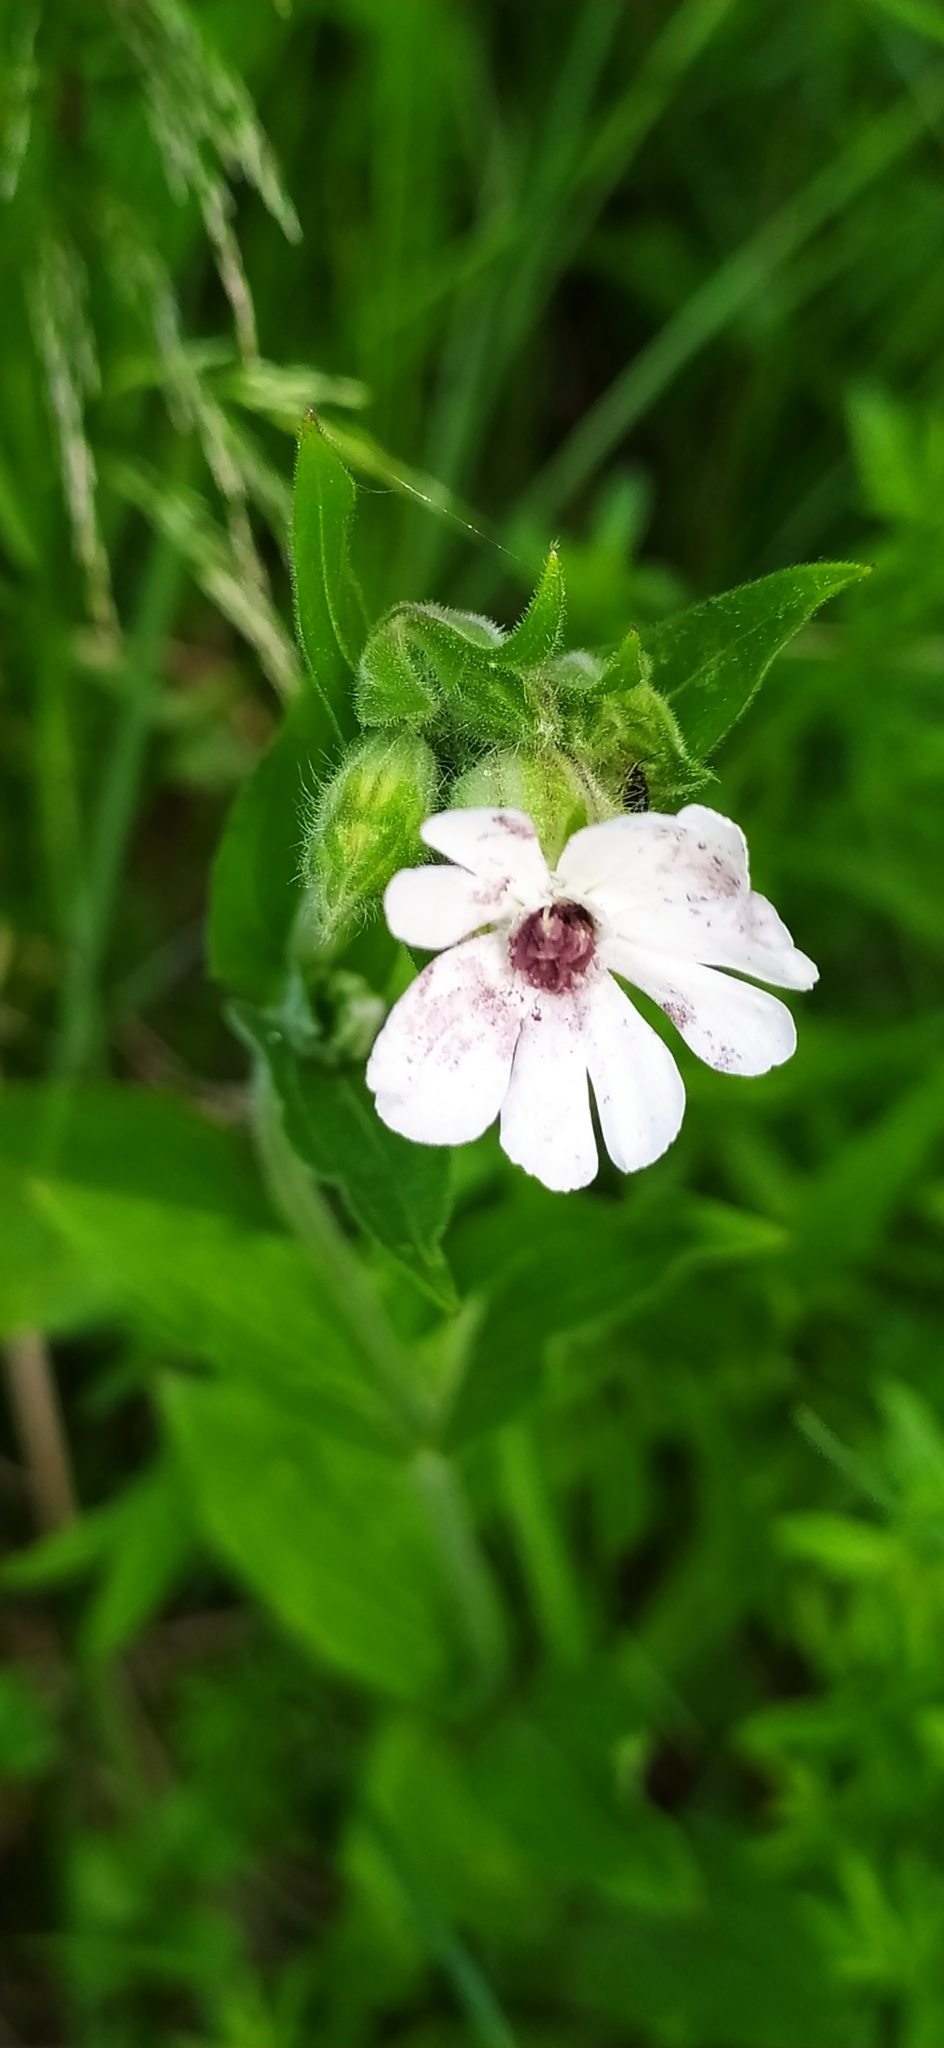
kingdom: Plantae
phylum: Tracheophyta
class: Magnoliopsida
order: Caryophyllales
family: Caryophyllaceae
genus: Silene
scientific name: Silene latifolia
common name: White campion
